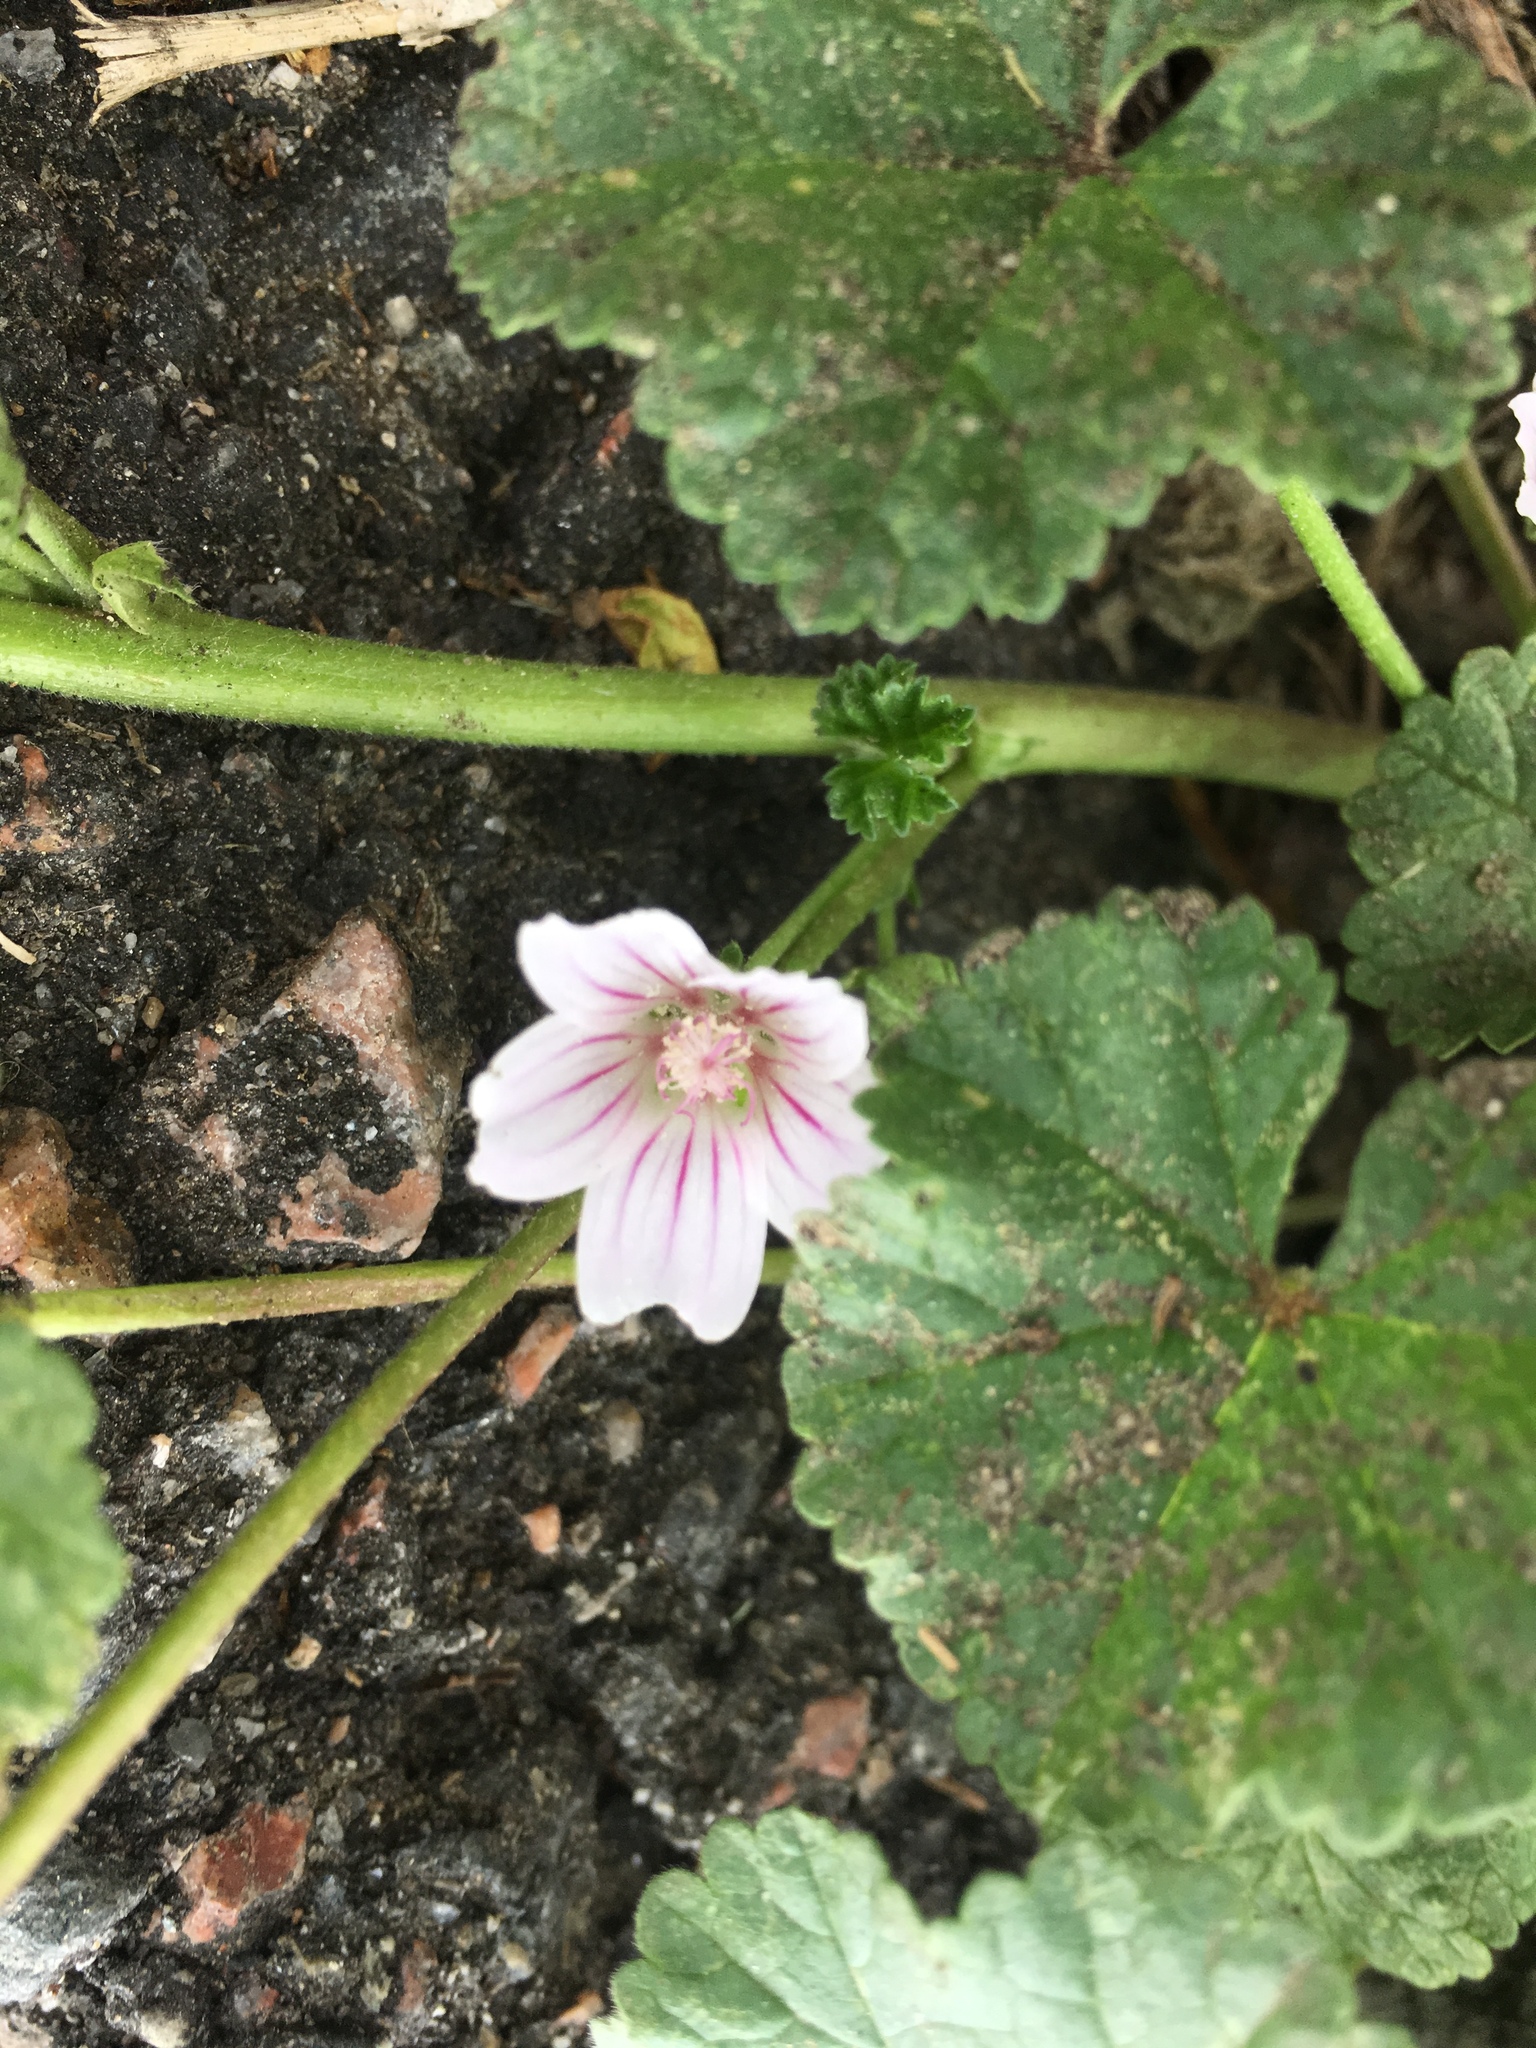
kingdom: Plantae
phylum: Tracheophyta
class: Magnoliopsida
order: Malvales
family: Malvaceae
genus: Malva
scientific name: Malva neglecta
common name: Common mallow
